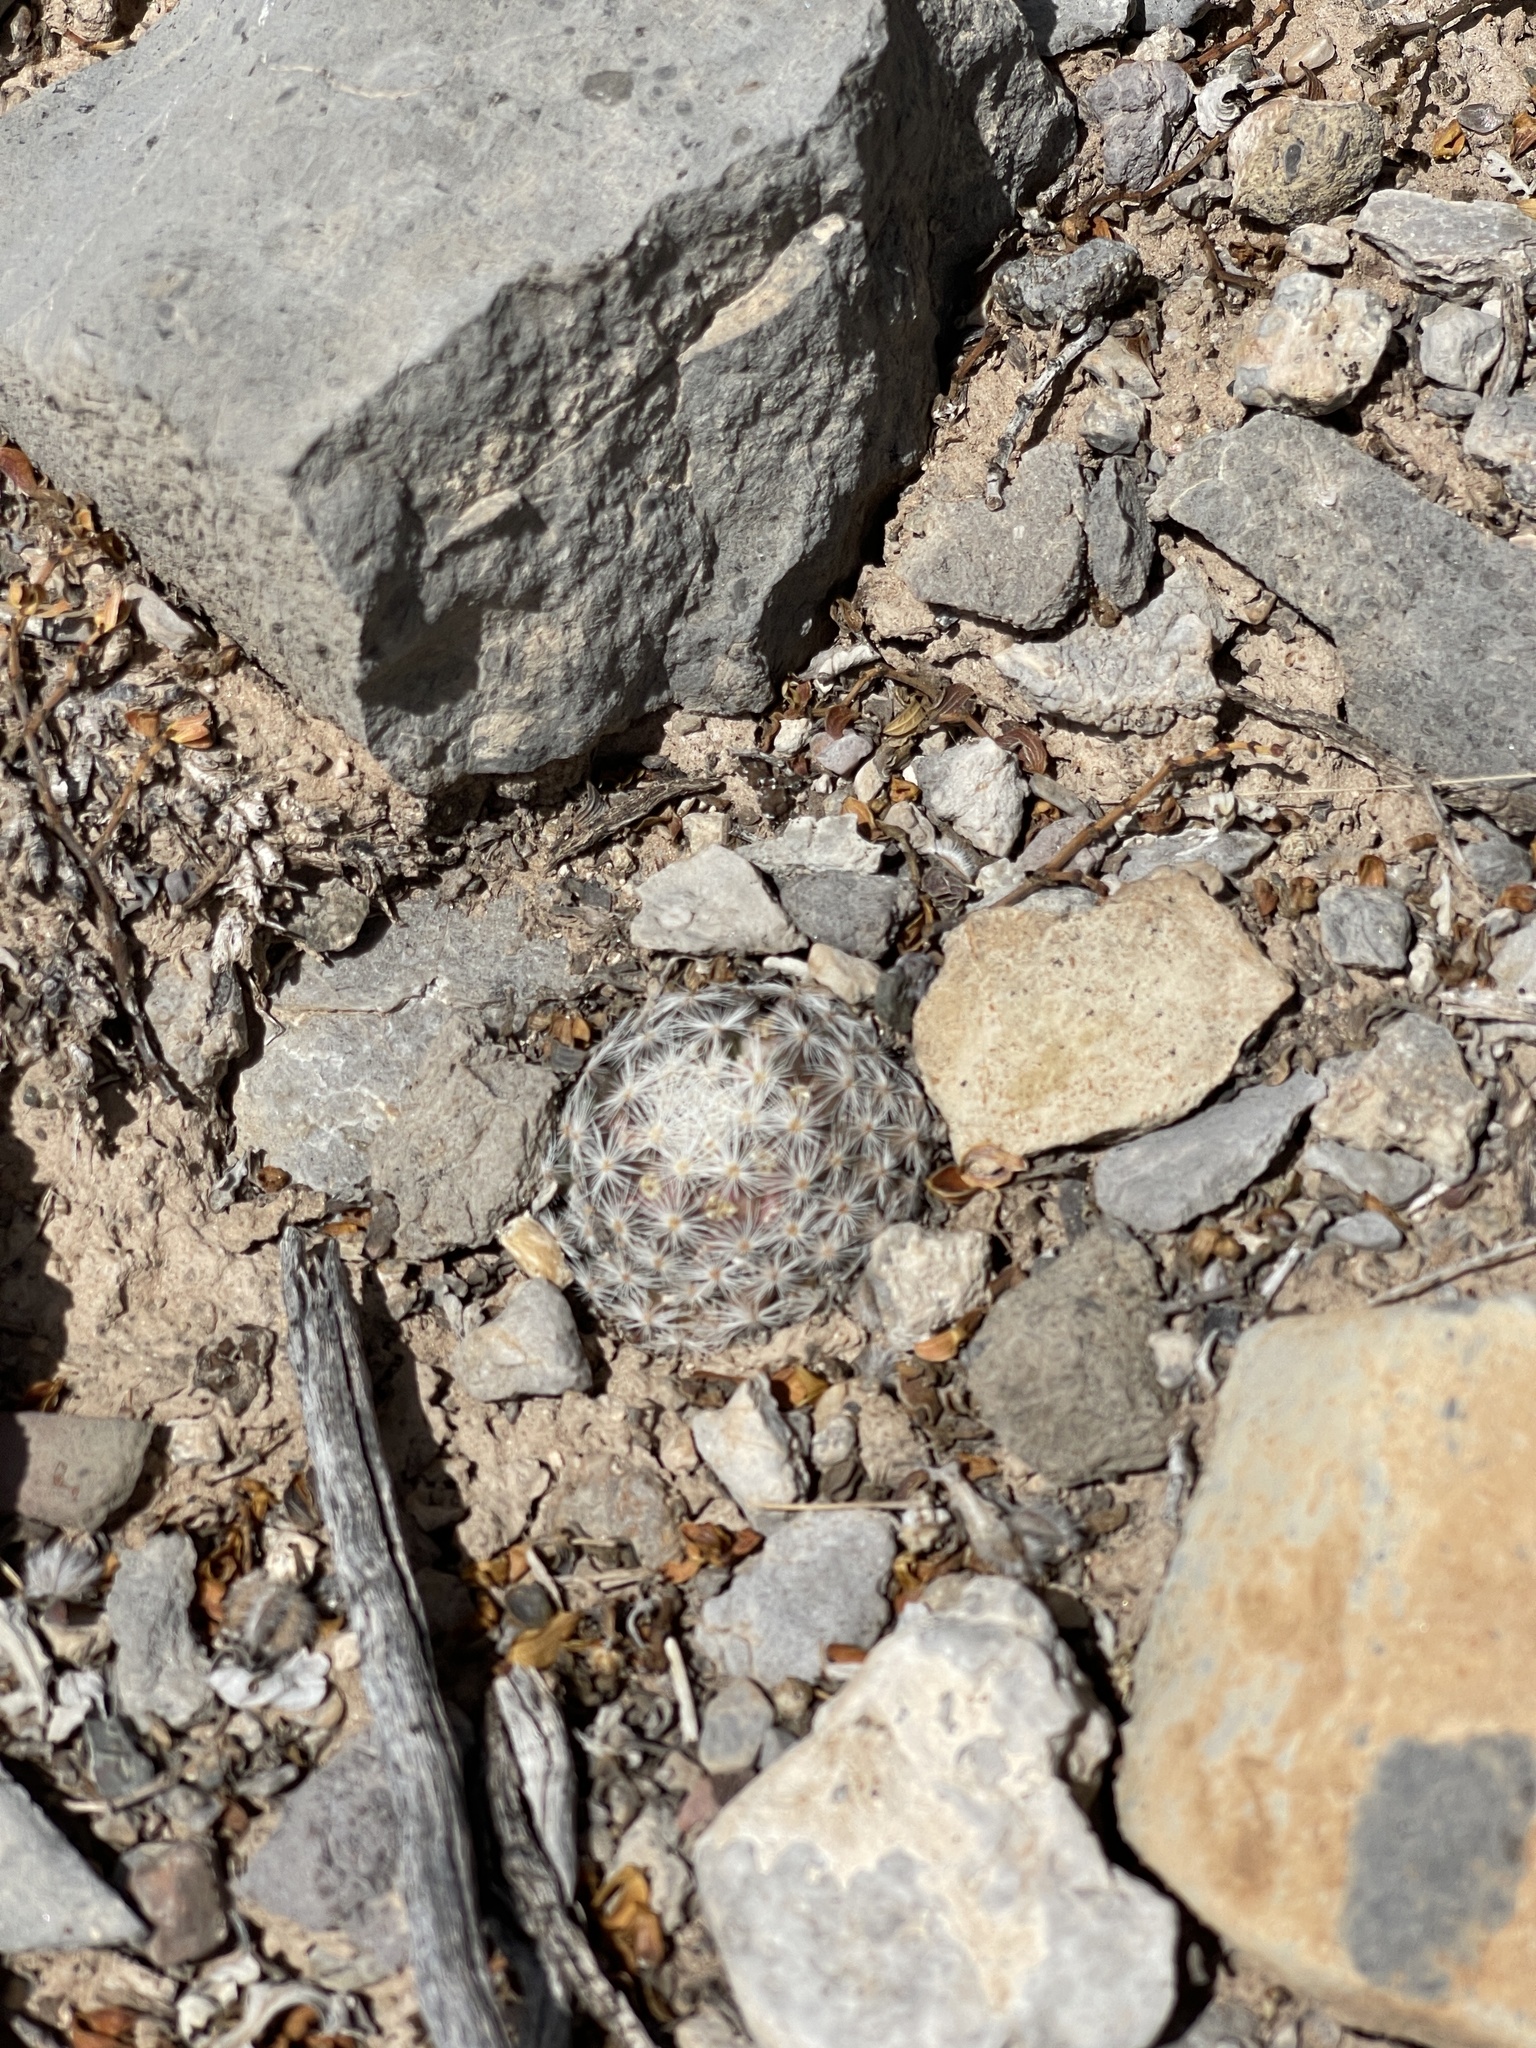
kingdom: Plantae
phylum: Tracheophyta
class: Magnoliopsida
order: Caryophyllales
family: Cactaceae
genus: Mammillaria
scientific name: Mammillaria lasiacantha
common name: Lace-spine nipple cactus
